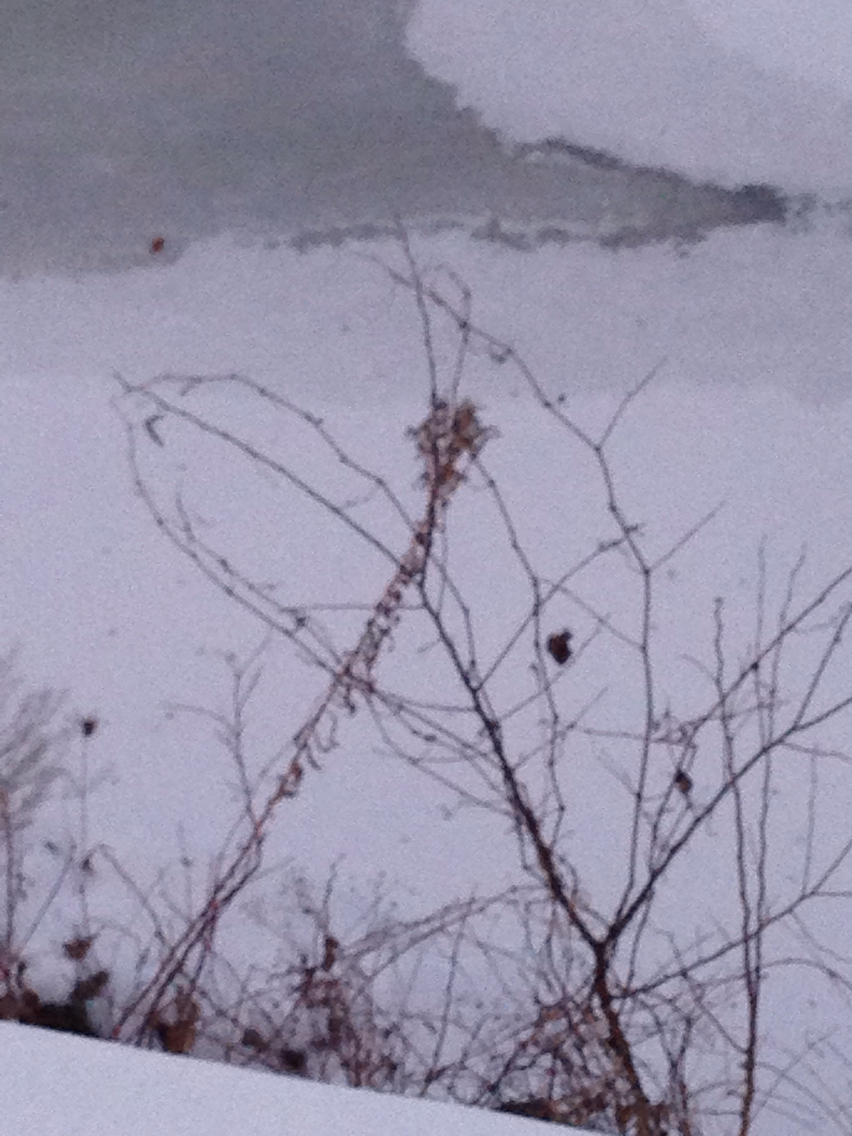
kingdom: Plantae
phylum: Tracheophyta
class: Magnoliopsida
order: Asterales
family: Asteraceae
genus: Solidago
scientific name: Solidago
